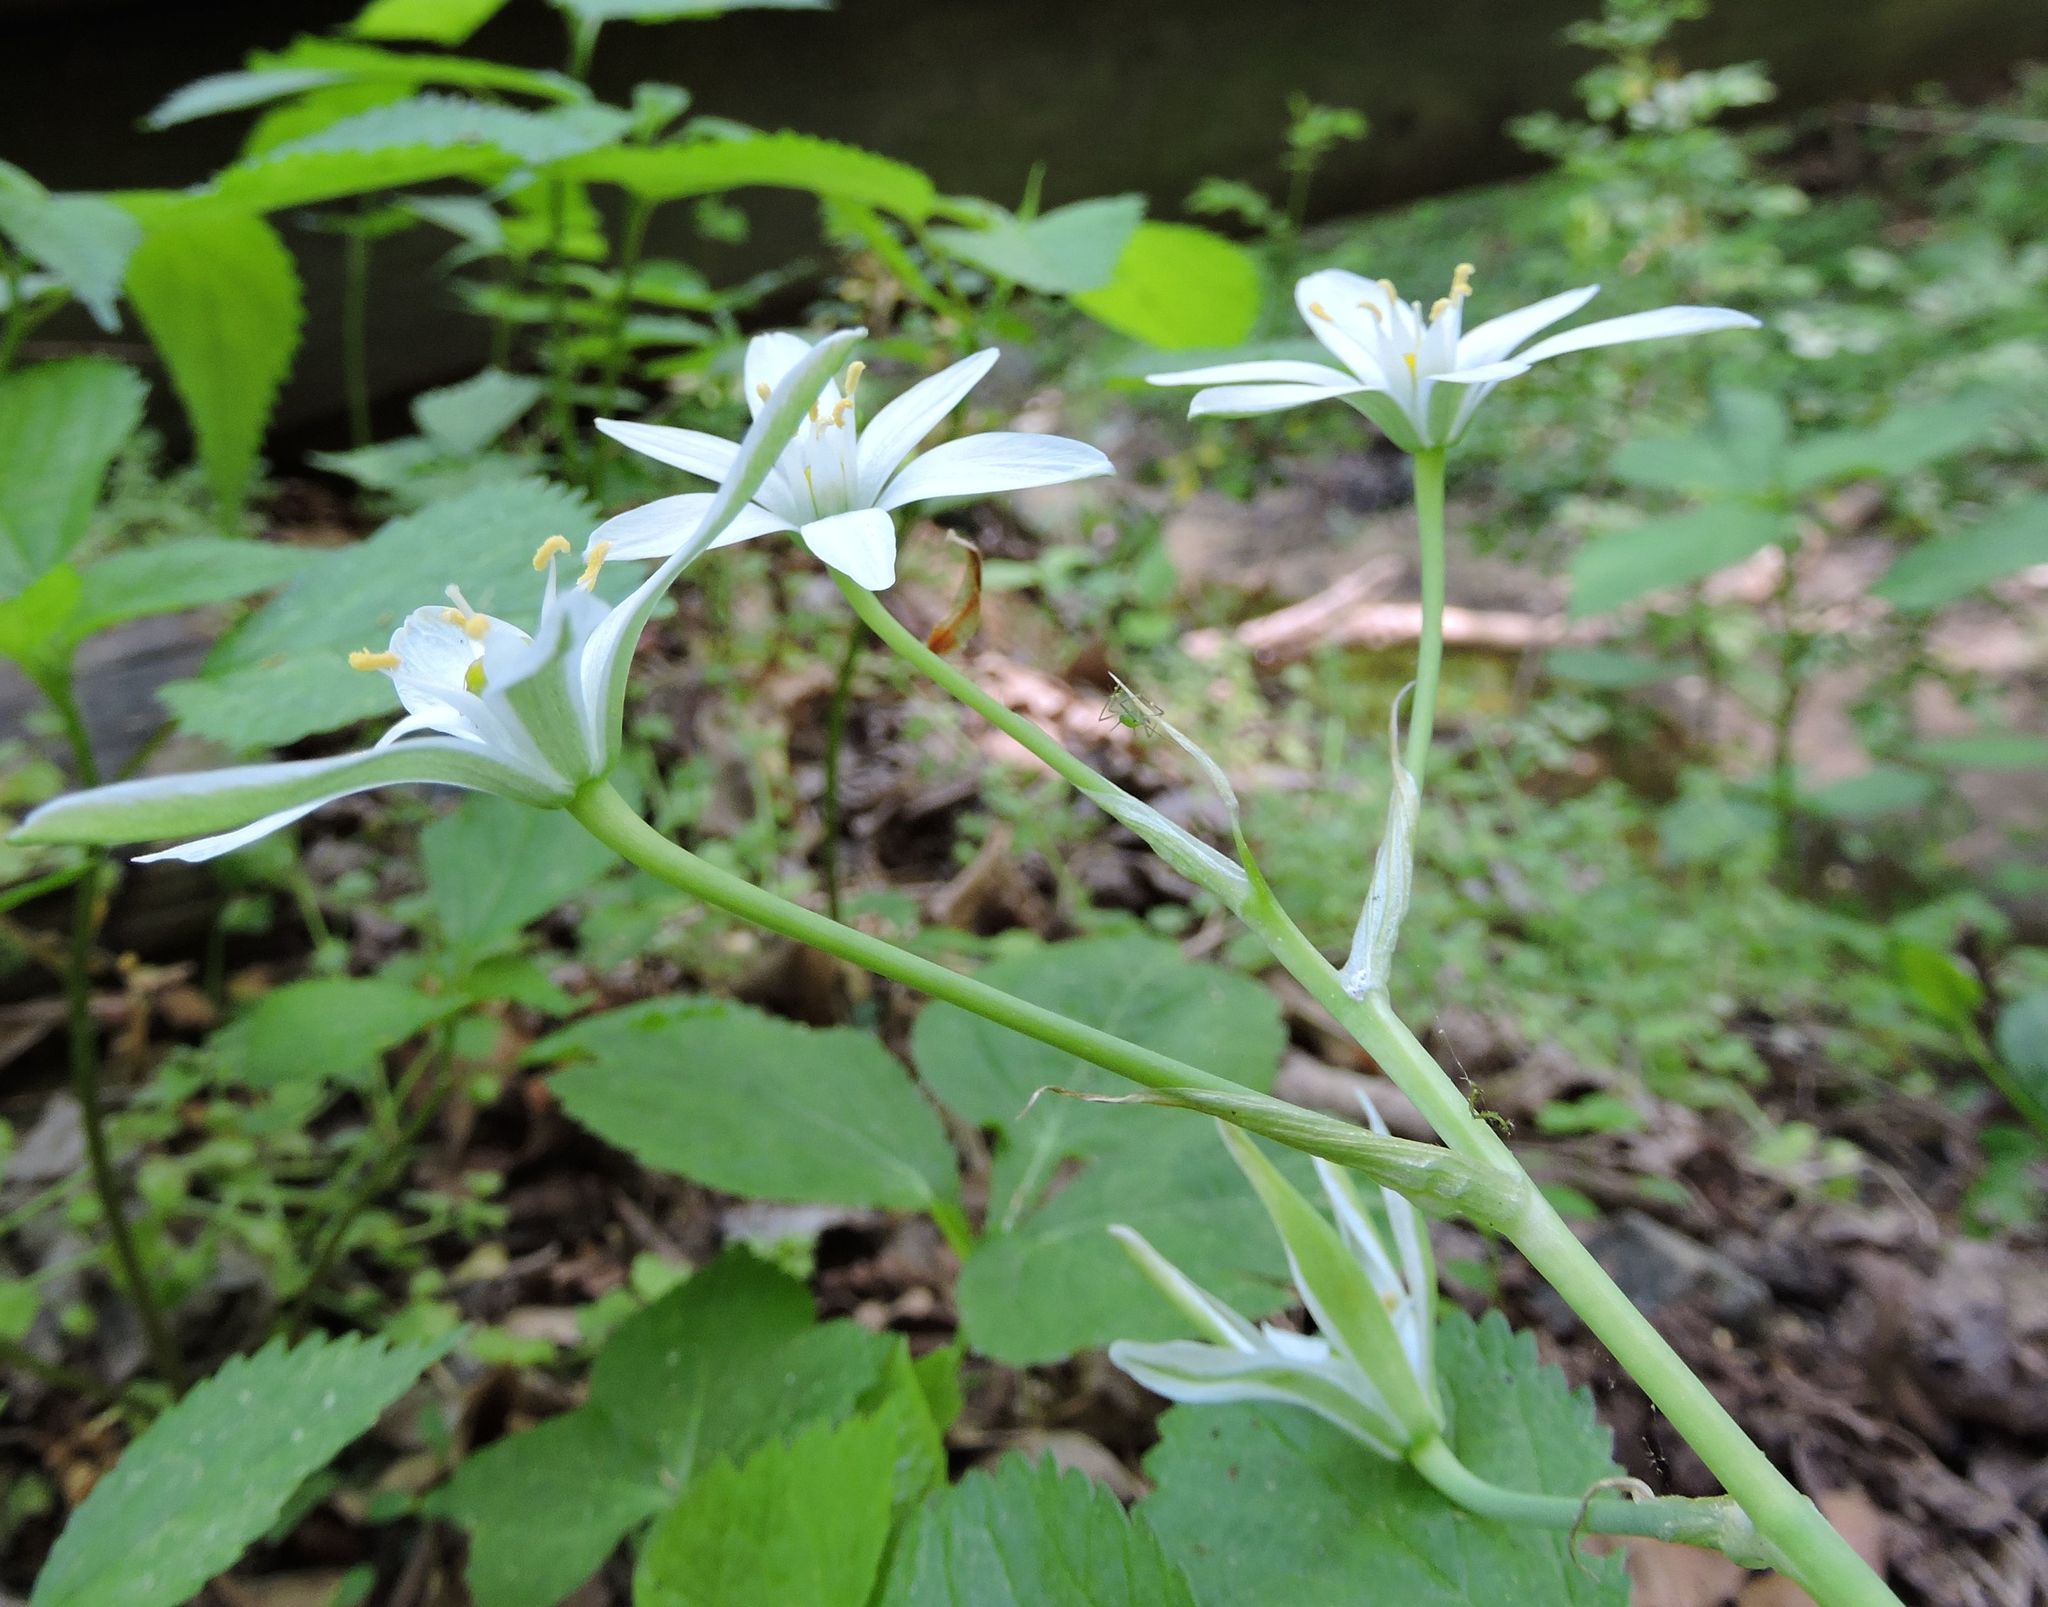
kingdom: Plantae
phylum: Tracheophyta
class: Liliopsida
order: Asparagales
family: Asparagaceae
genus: Ornithogalum
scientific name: Ornithogalum umbellatum
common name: Garden star-of-bethlehem
